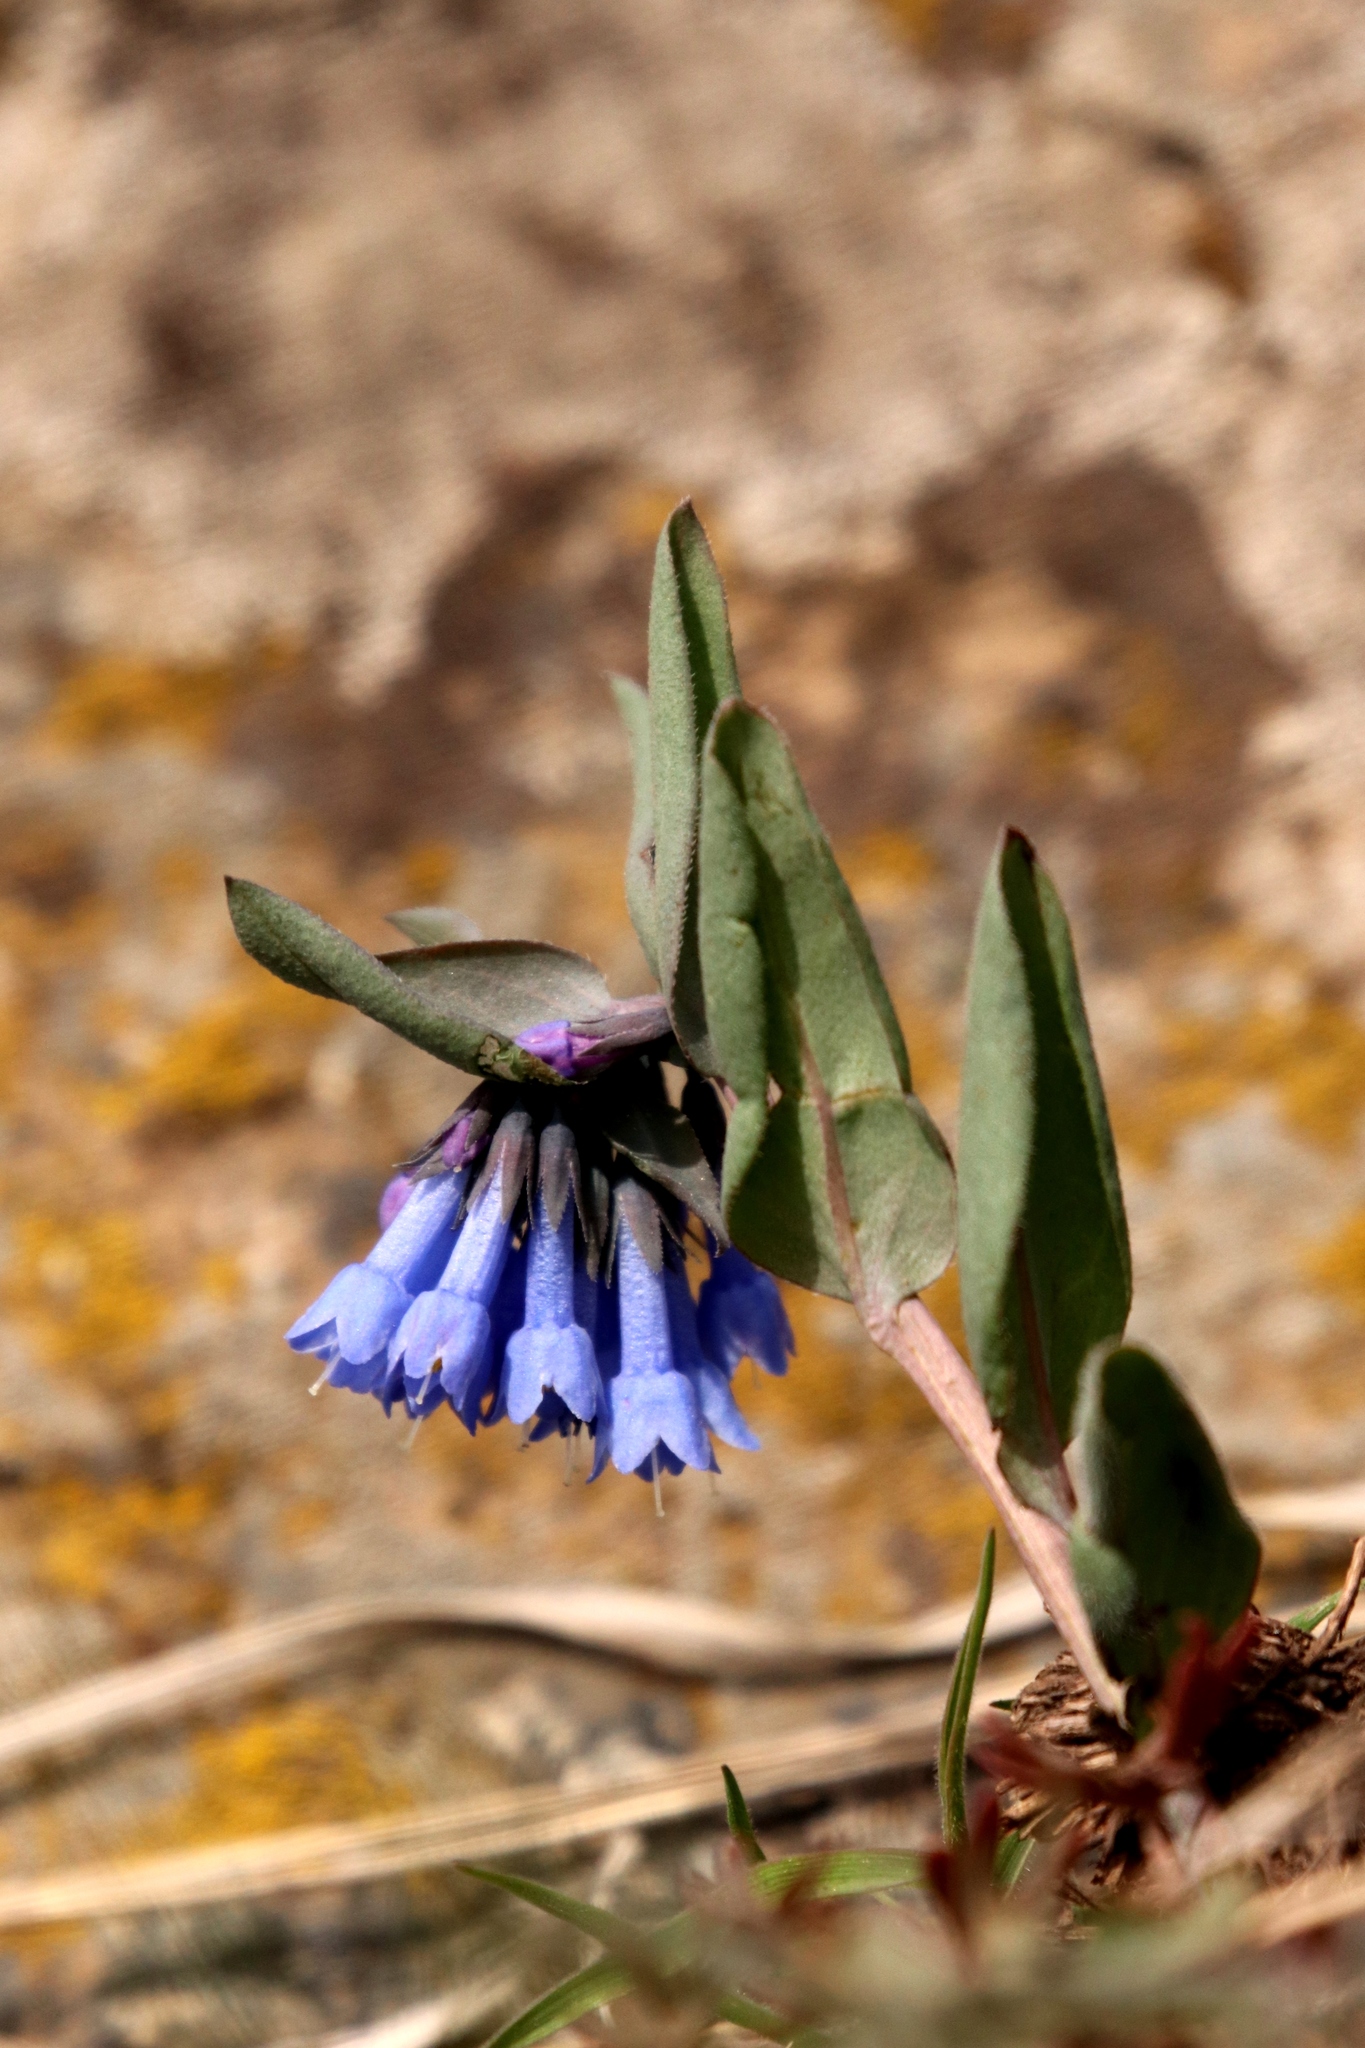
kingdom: Plantae
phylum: Tracheophyta
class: Magnoliopsida
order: Boraginales
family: Boraginaceae
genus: Mertensia
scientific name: Mertensia longiflora
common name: Large-flowered bluebells
